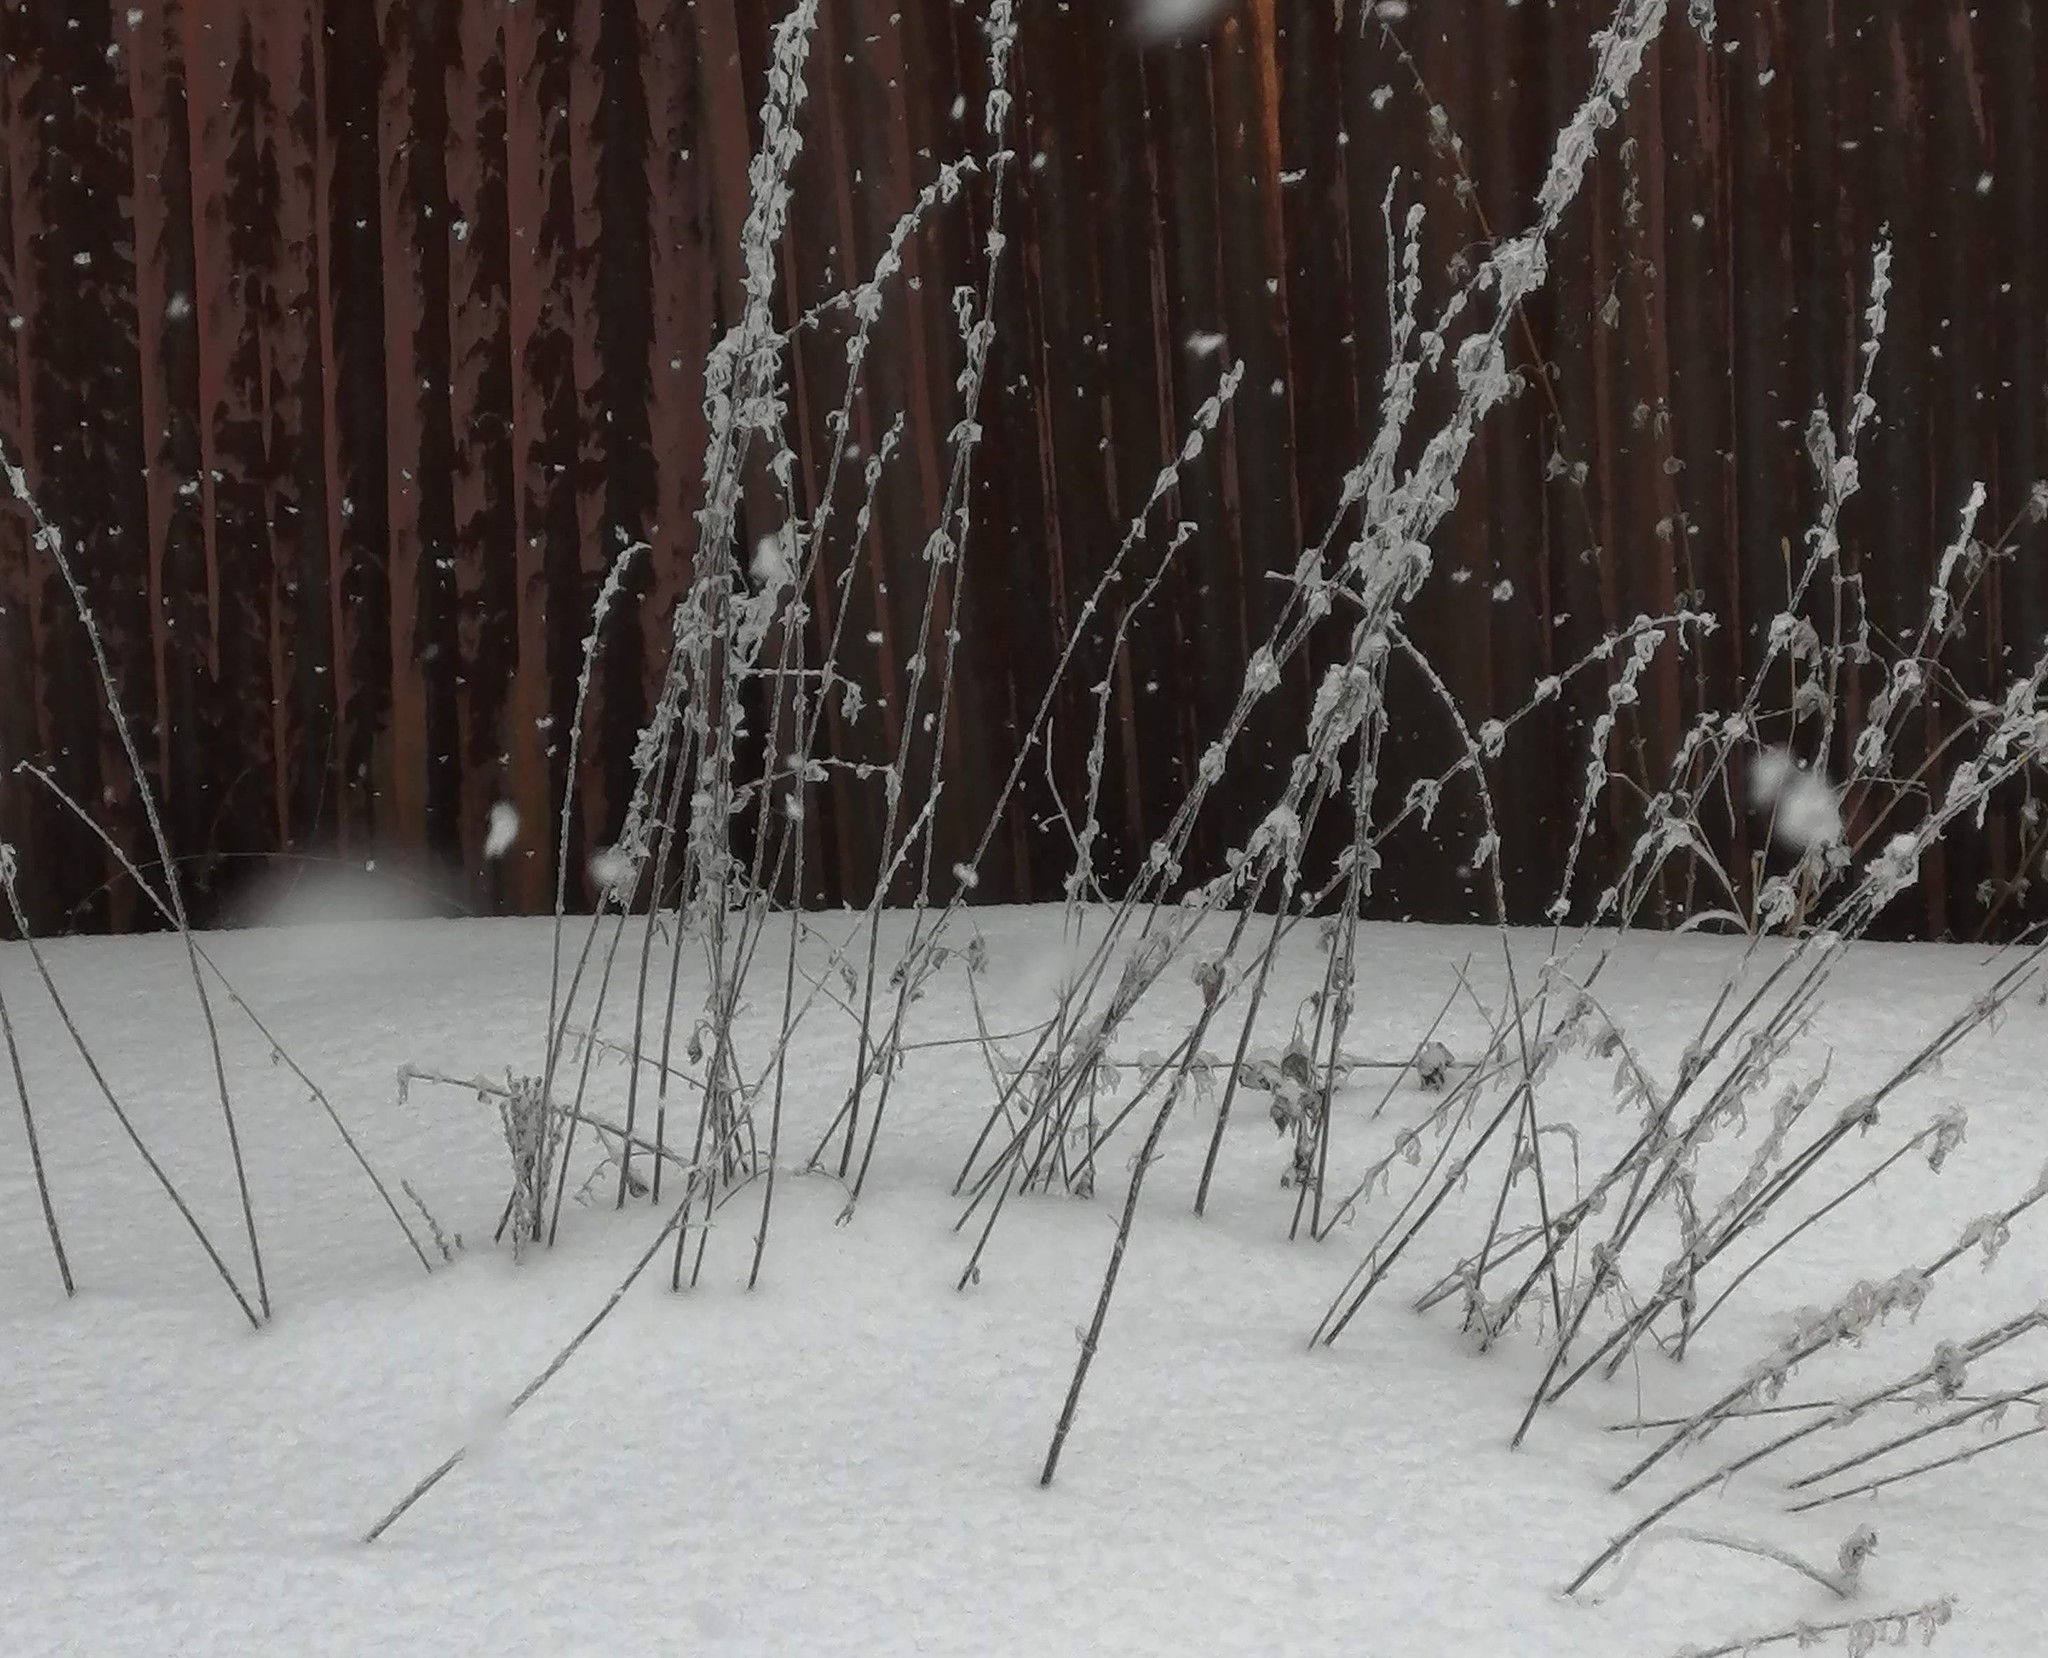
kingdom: Plantae
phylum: Tracheophyta
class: Magnoliopsida
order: Rosales
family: Urticaceae
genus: Urtica
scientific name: Urtica dioica
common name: Common nettle
